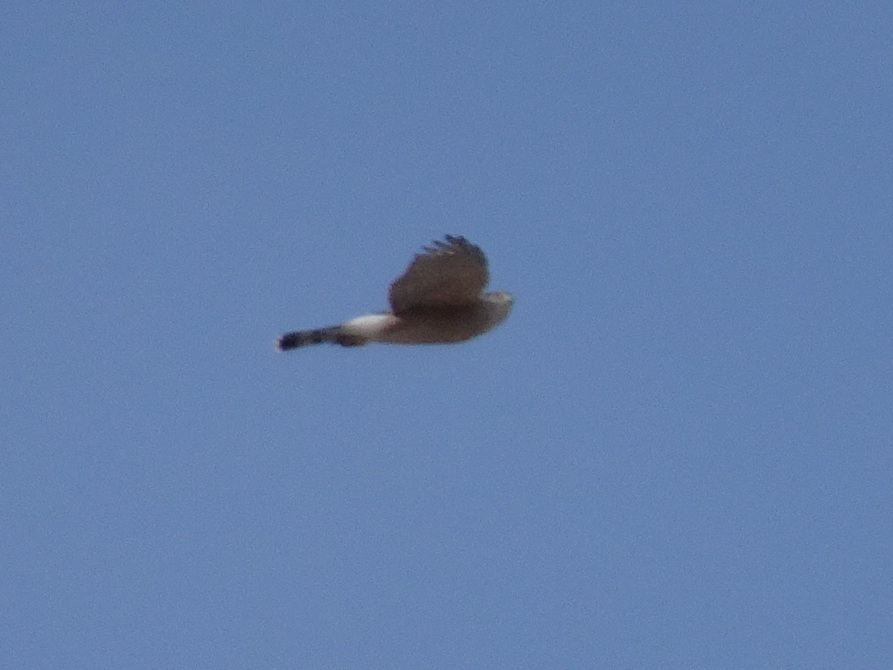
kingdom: Animalia
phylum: Chordata
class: Aves
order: Accipitriformes
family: Accipitridae
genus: Accipiter
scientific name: Accipiter cooperii
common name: Cooper's hawk
